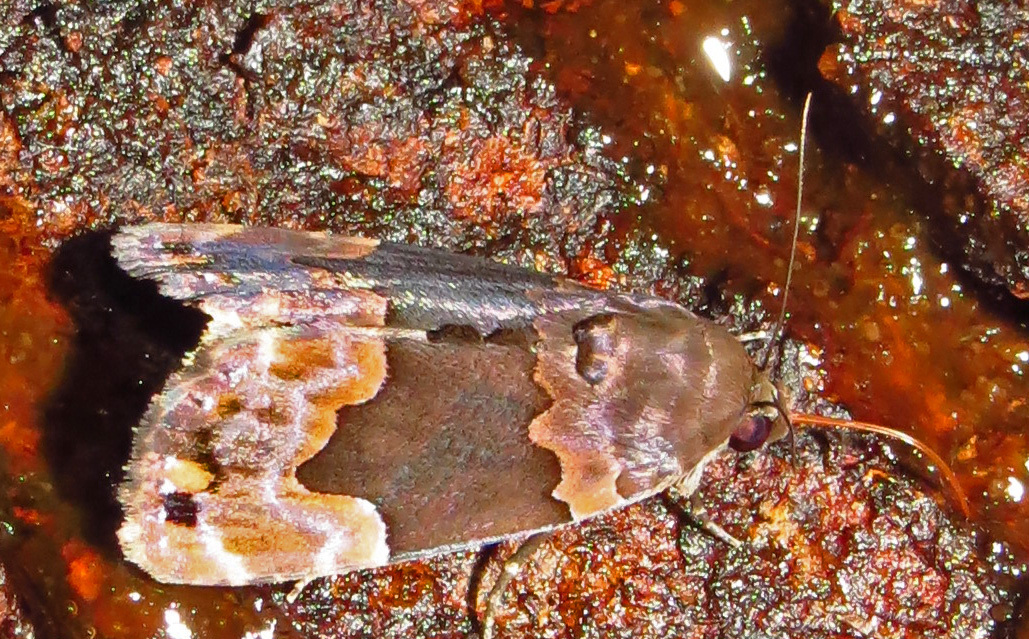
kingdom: Animalia
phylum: Arthropoda
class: Insecta
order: Lepidoptera
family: Erebidae
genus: Dinumma
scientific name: Dinumma deponens
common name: Purplish moth
